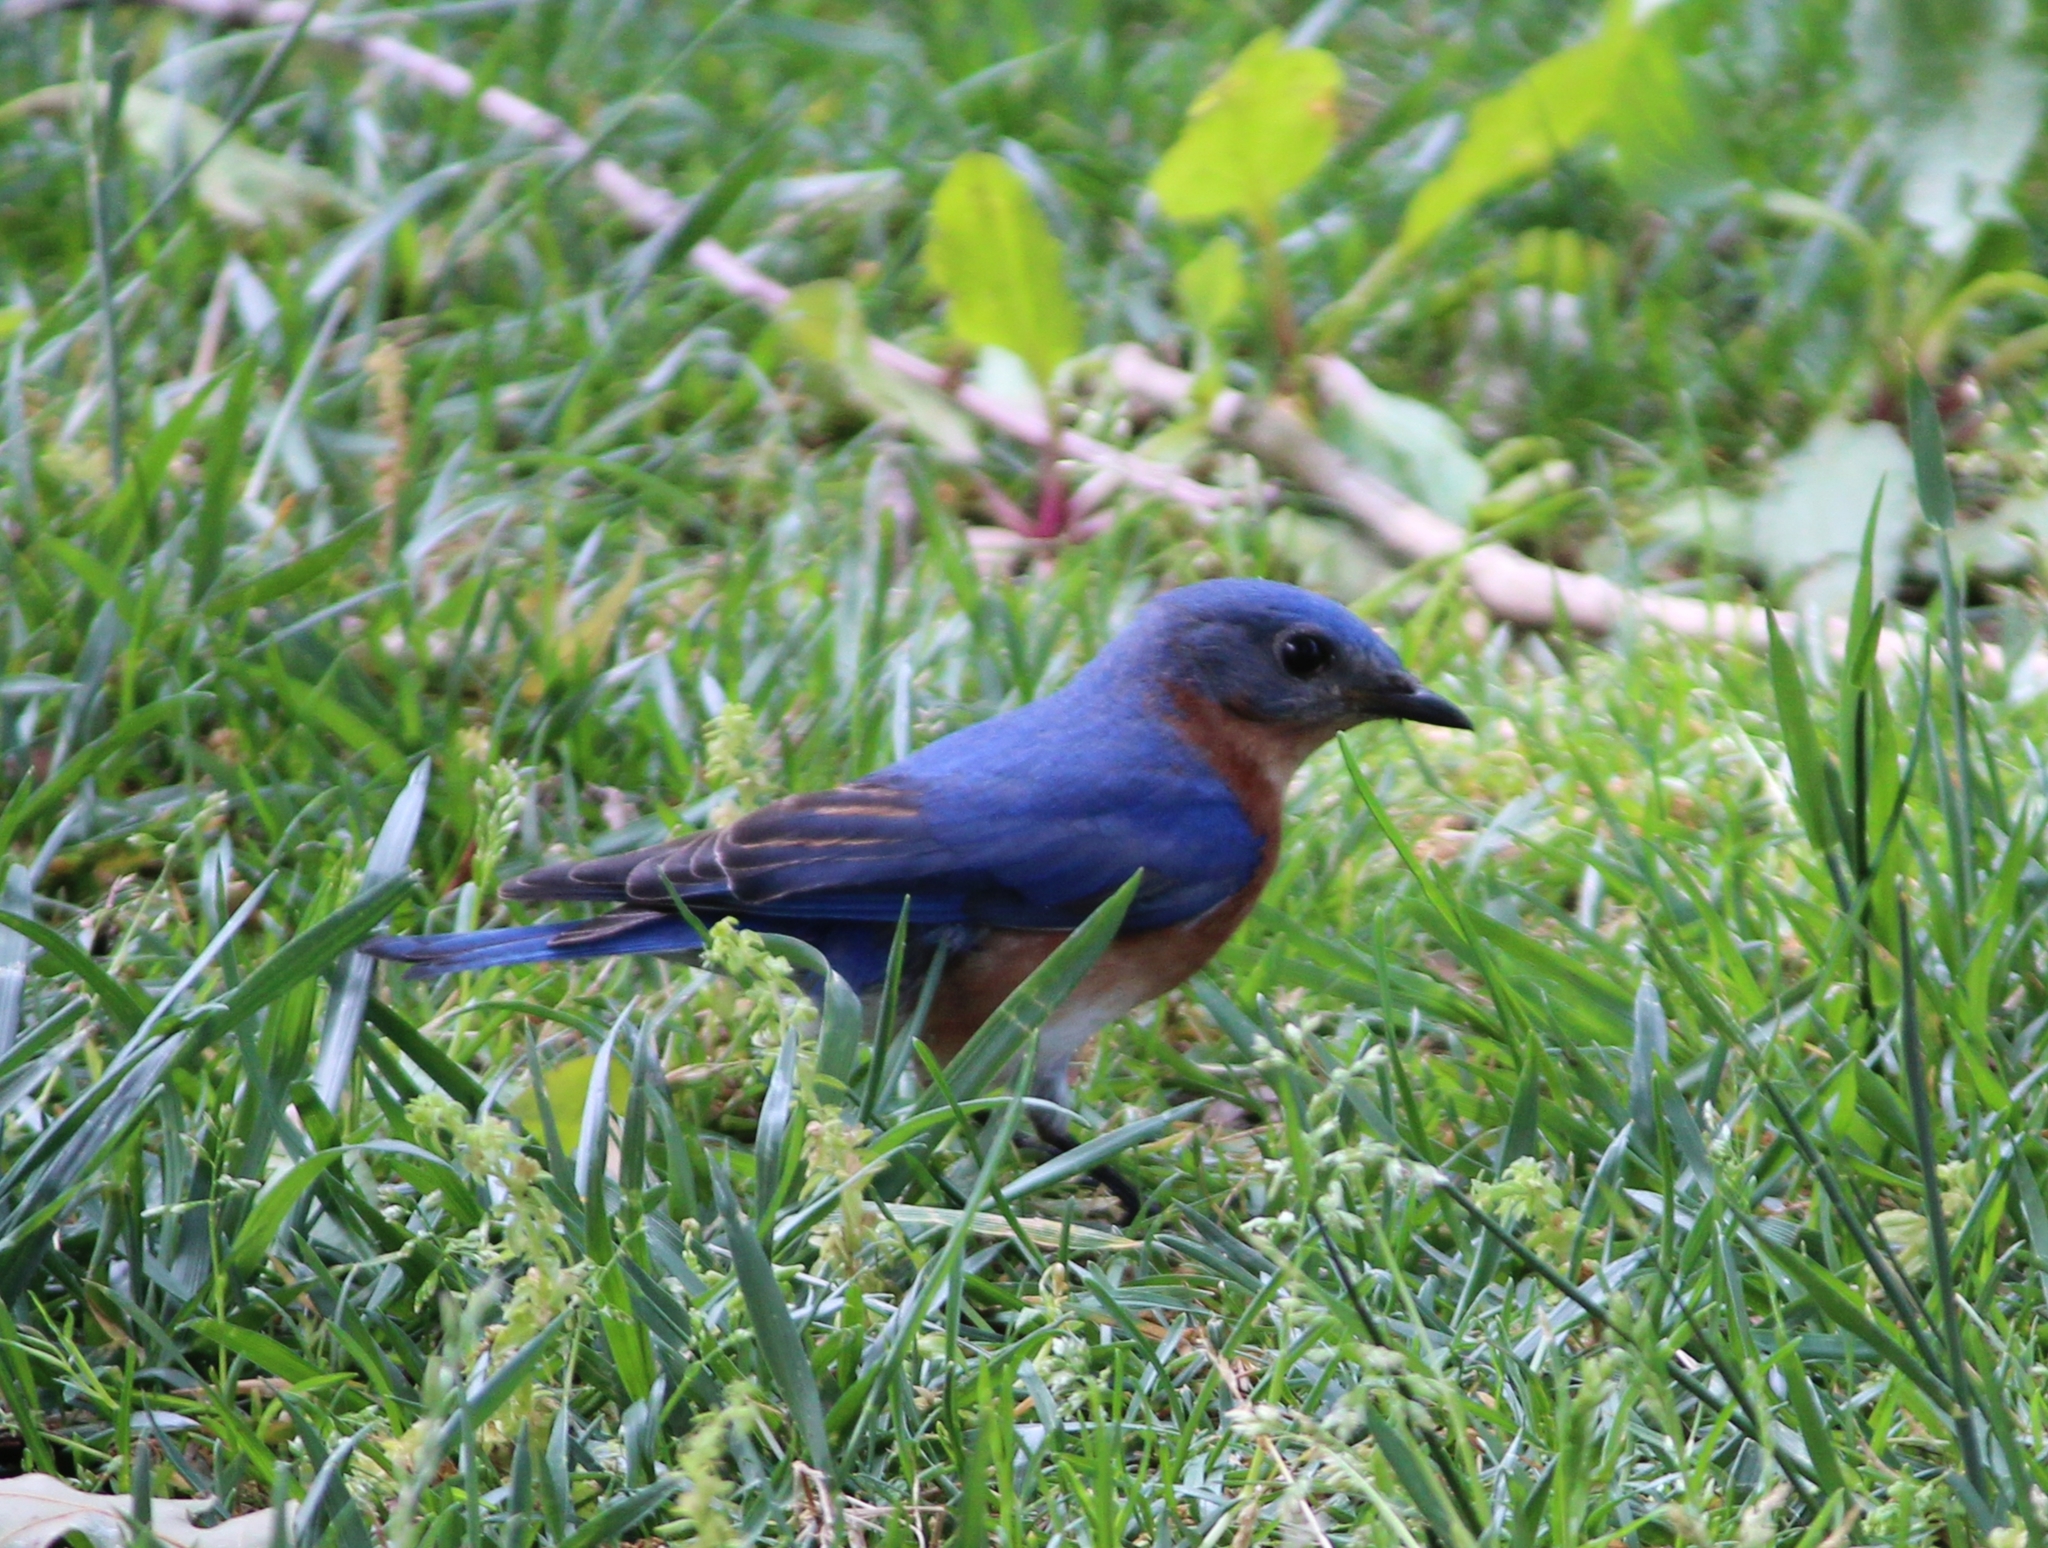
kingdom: Animalia
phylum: Chordata
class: Aves
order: Passeriformes
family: Turdidae
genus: Sialia
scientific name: Sialia sialis
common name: Eastern bluebird
